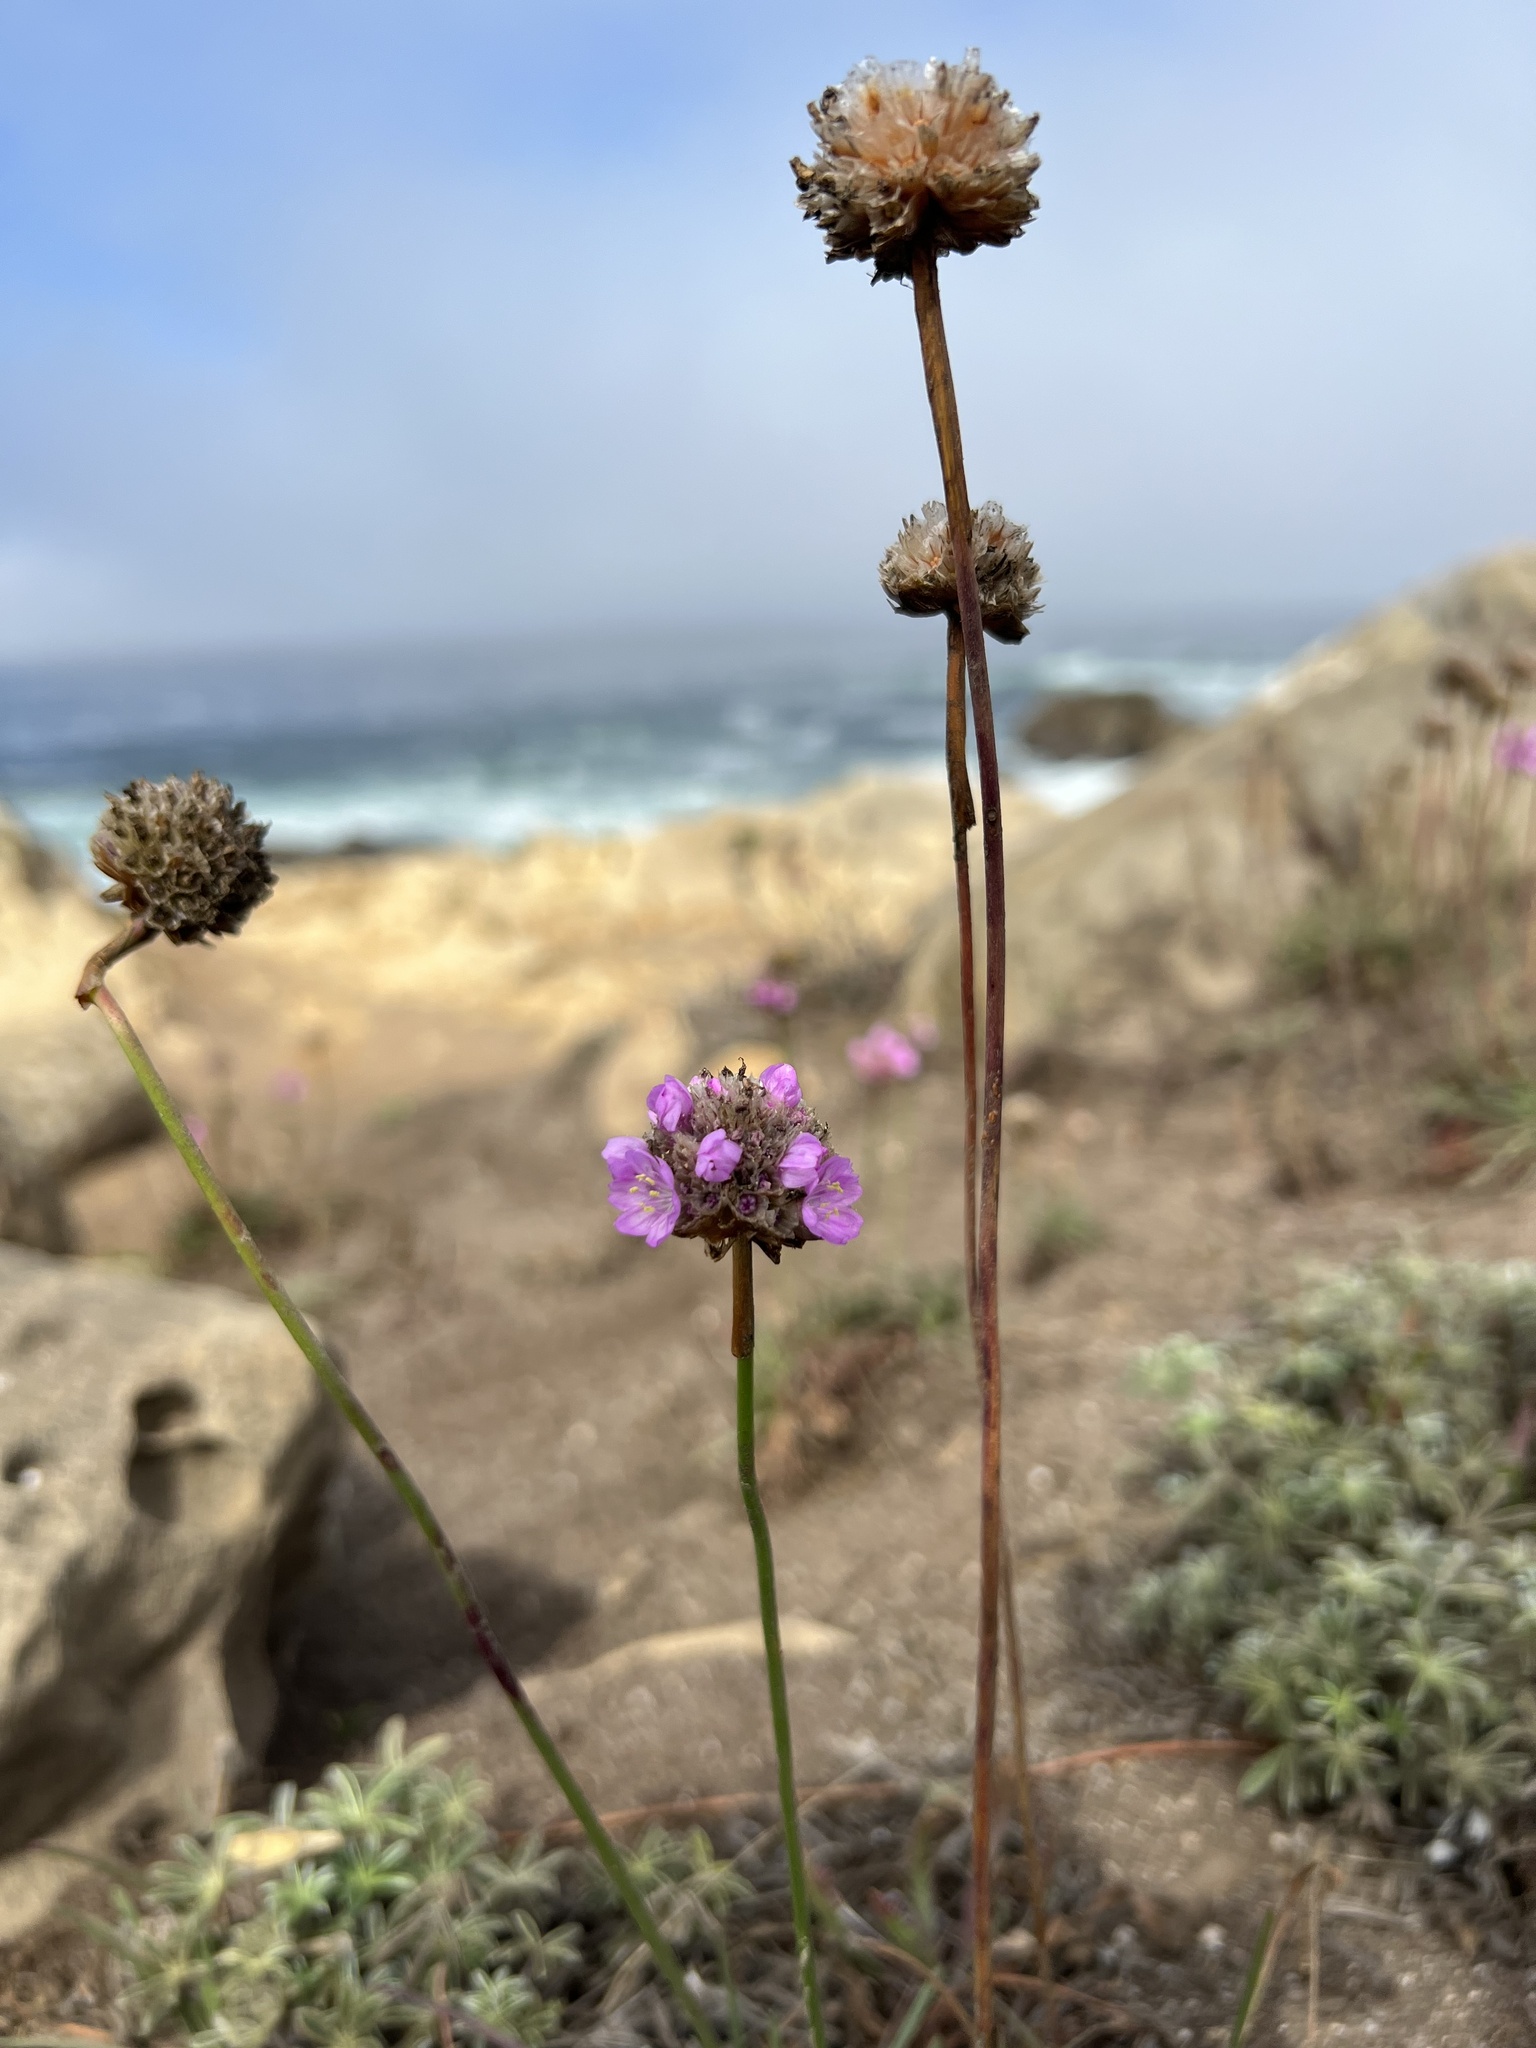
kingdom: Plantae
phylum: Tracheophyta
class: Magnoliopsida
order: Caryophyllales
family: Plumbaginaceae
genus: Armeria
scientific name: Armeria maritima
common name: Thrift
